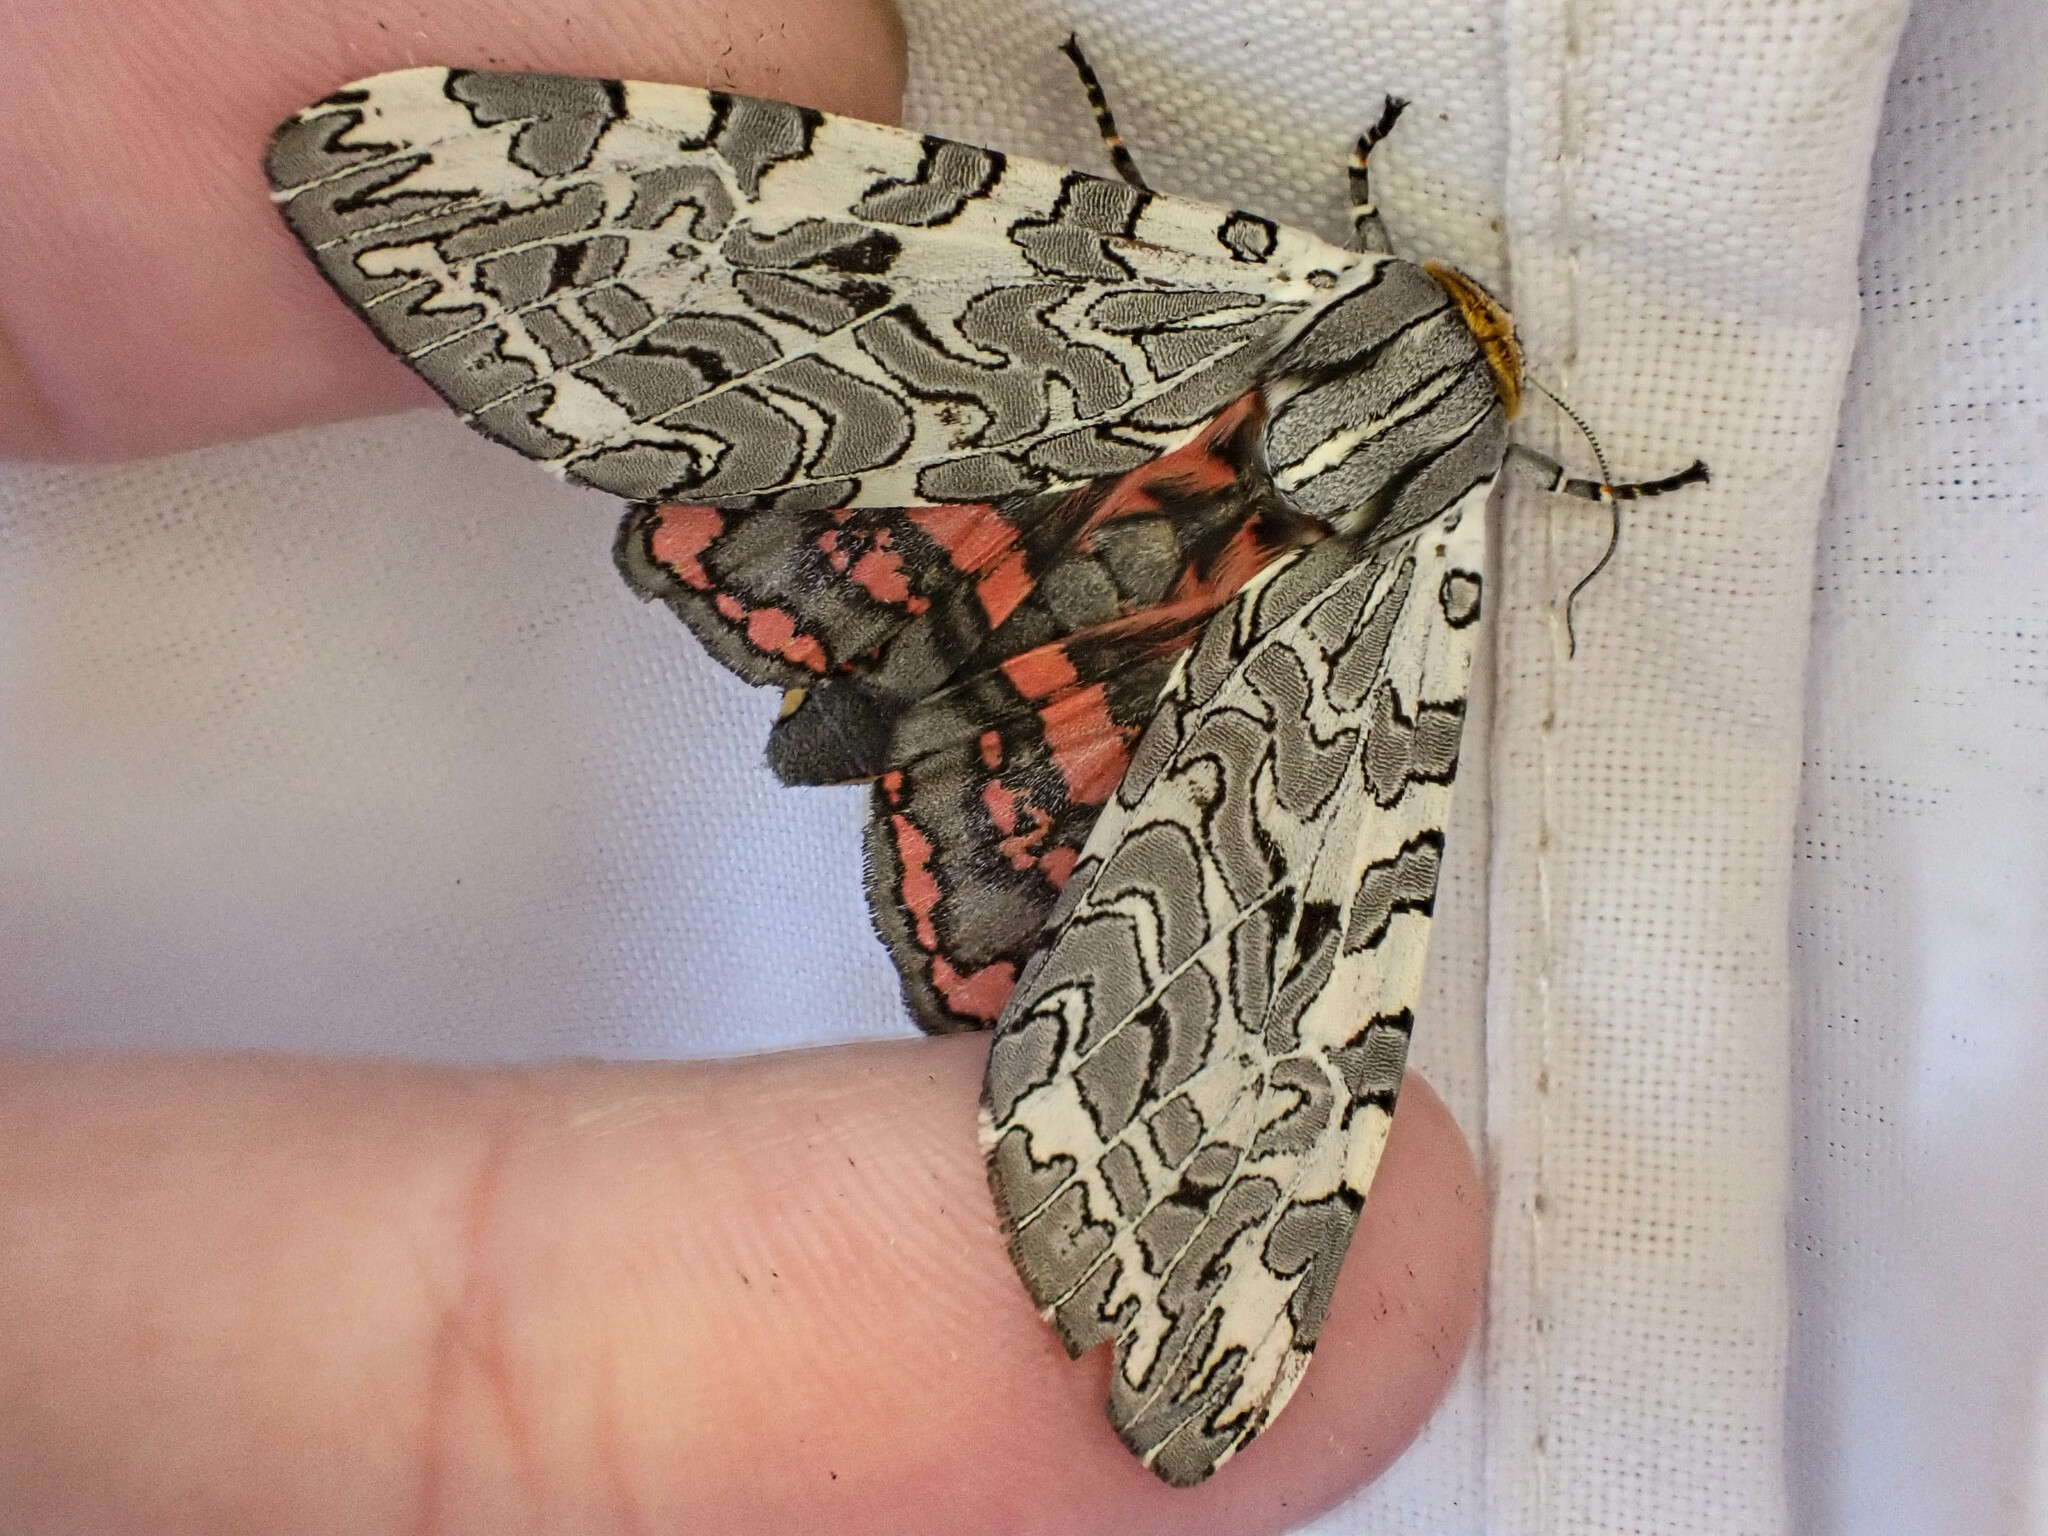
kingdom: Animalia
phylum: Arthropoda
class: Insecta
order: Lepidoptera
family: Erebidae
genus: Arachnis
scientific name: Arachnis picta
